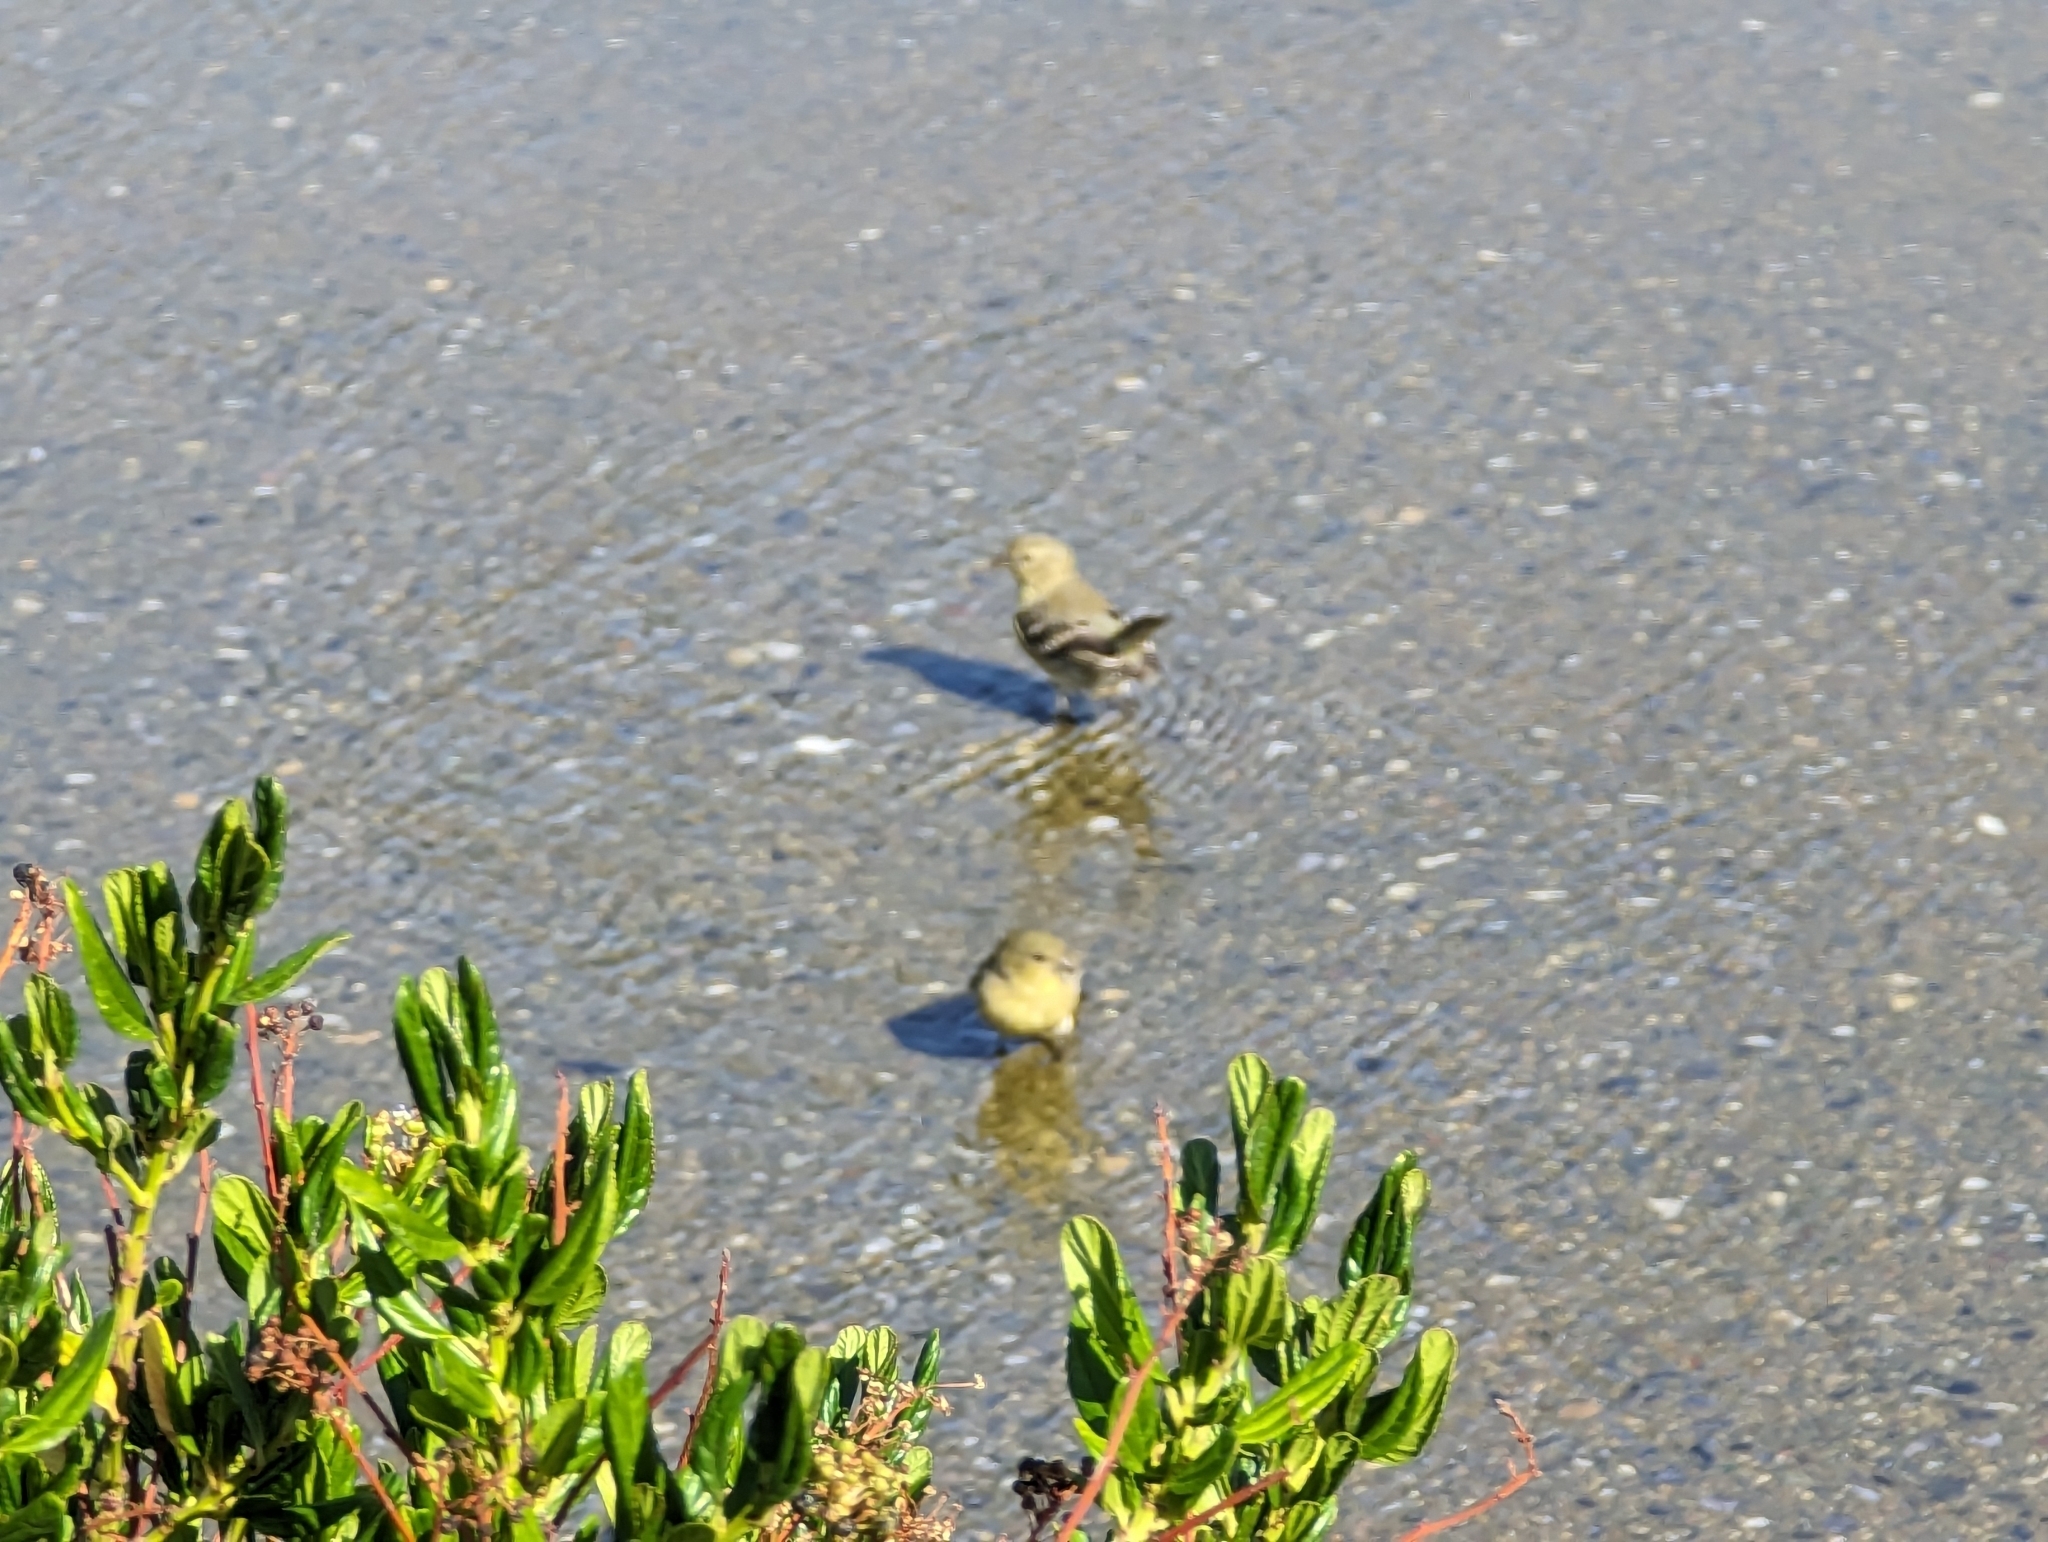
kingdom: Animalia
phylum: Chordata
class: Aves
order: Passeriformes
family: Fringillidae
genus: Spinus
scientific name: Spinus psaltria
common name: Lesser goldfinch
